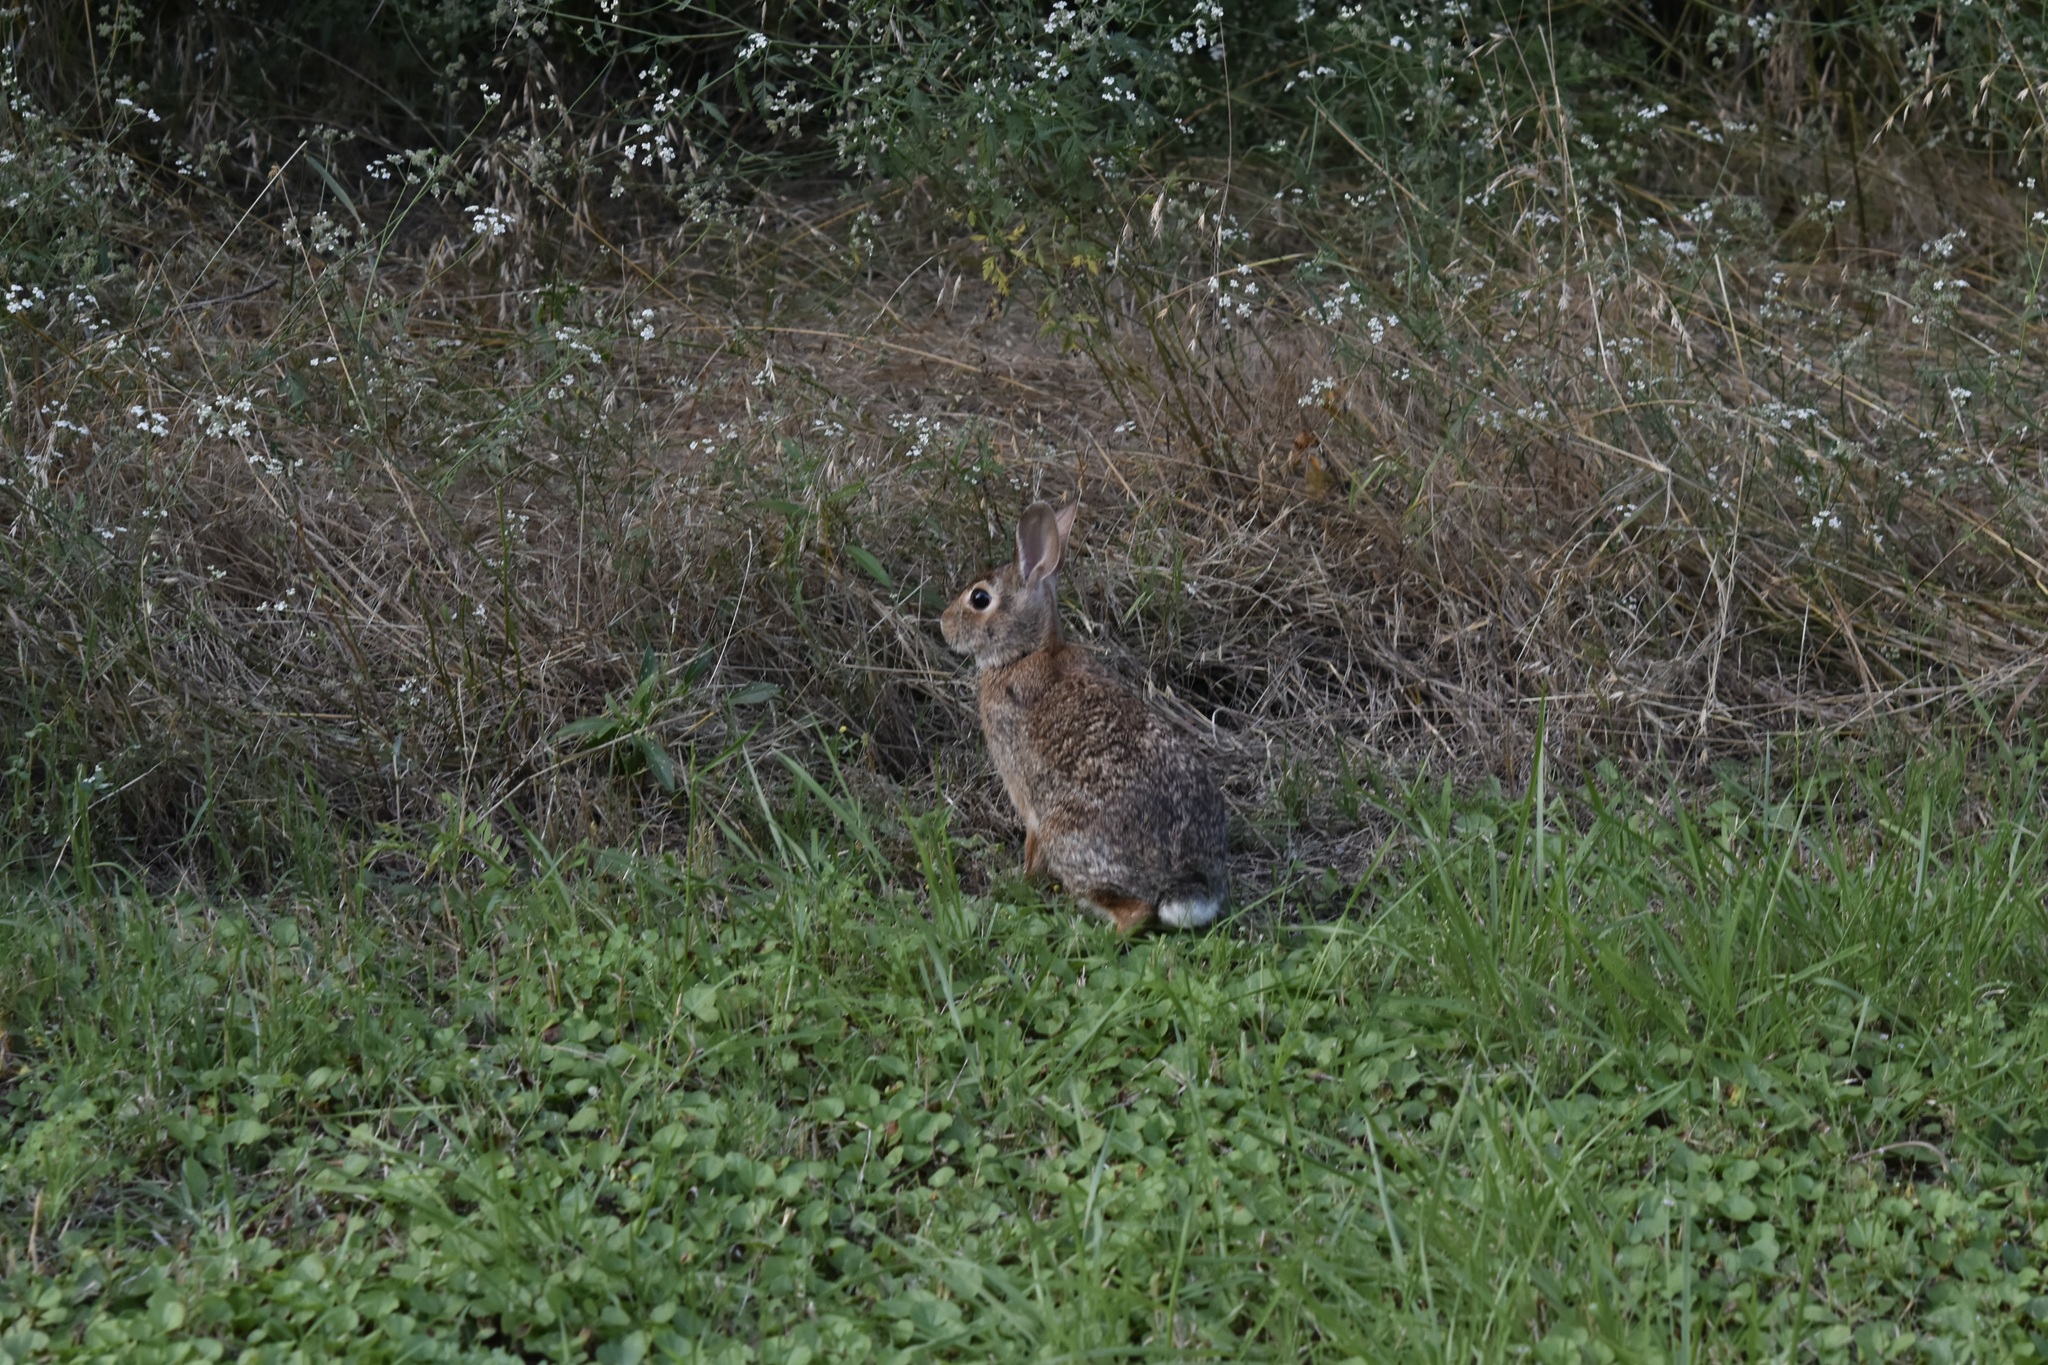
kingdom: Animalia
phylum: Chordata
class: Mammalia
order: Lagomorpha
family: Leporidae
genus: Sylvilagus
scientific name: Sylvilagus floridanus
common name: Eastern cottontail
